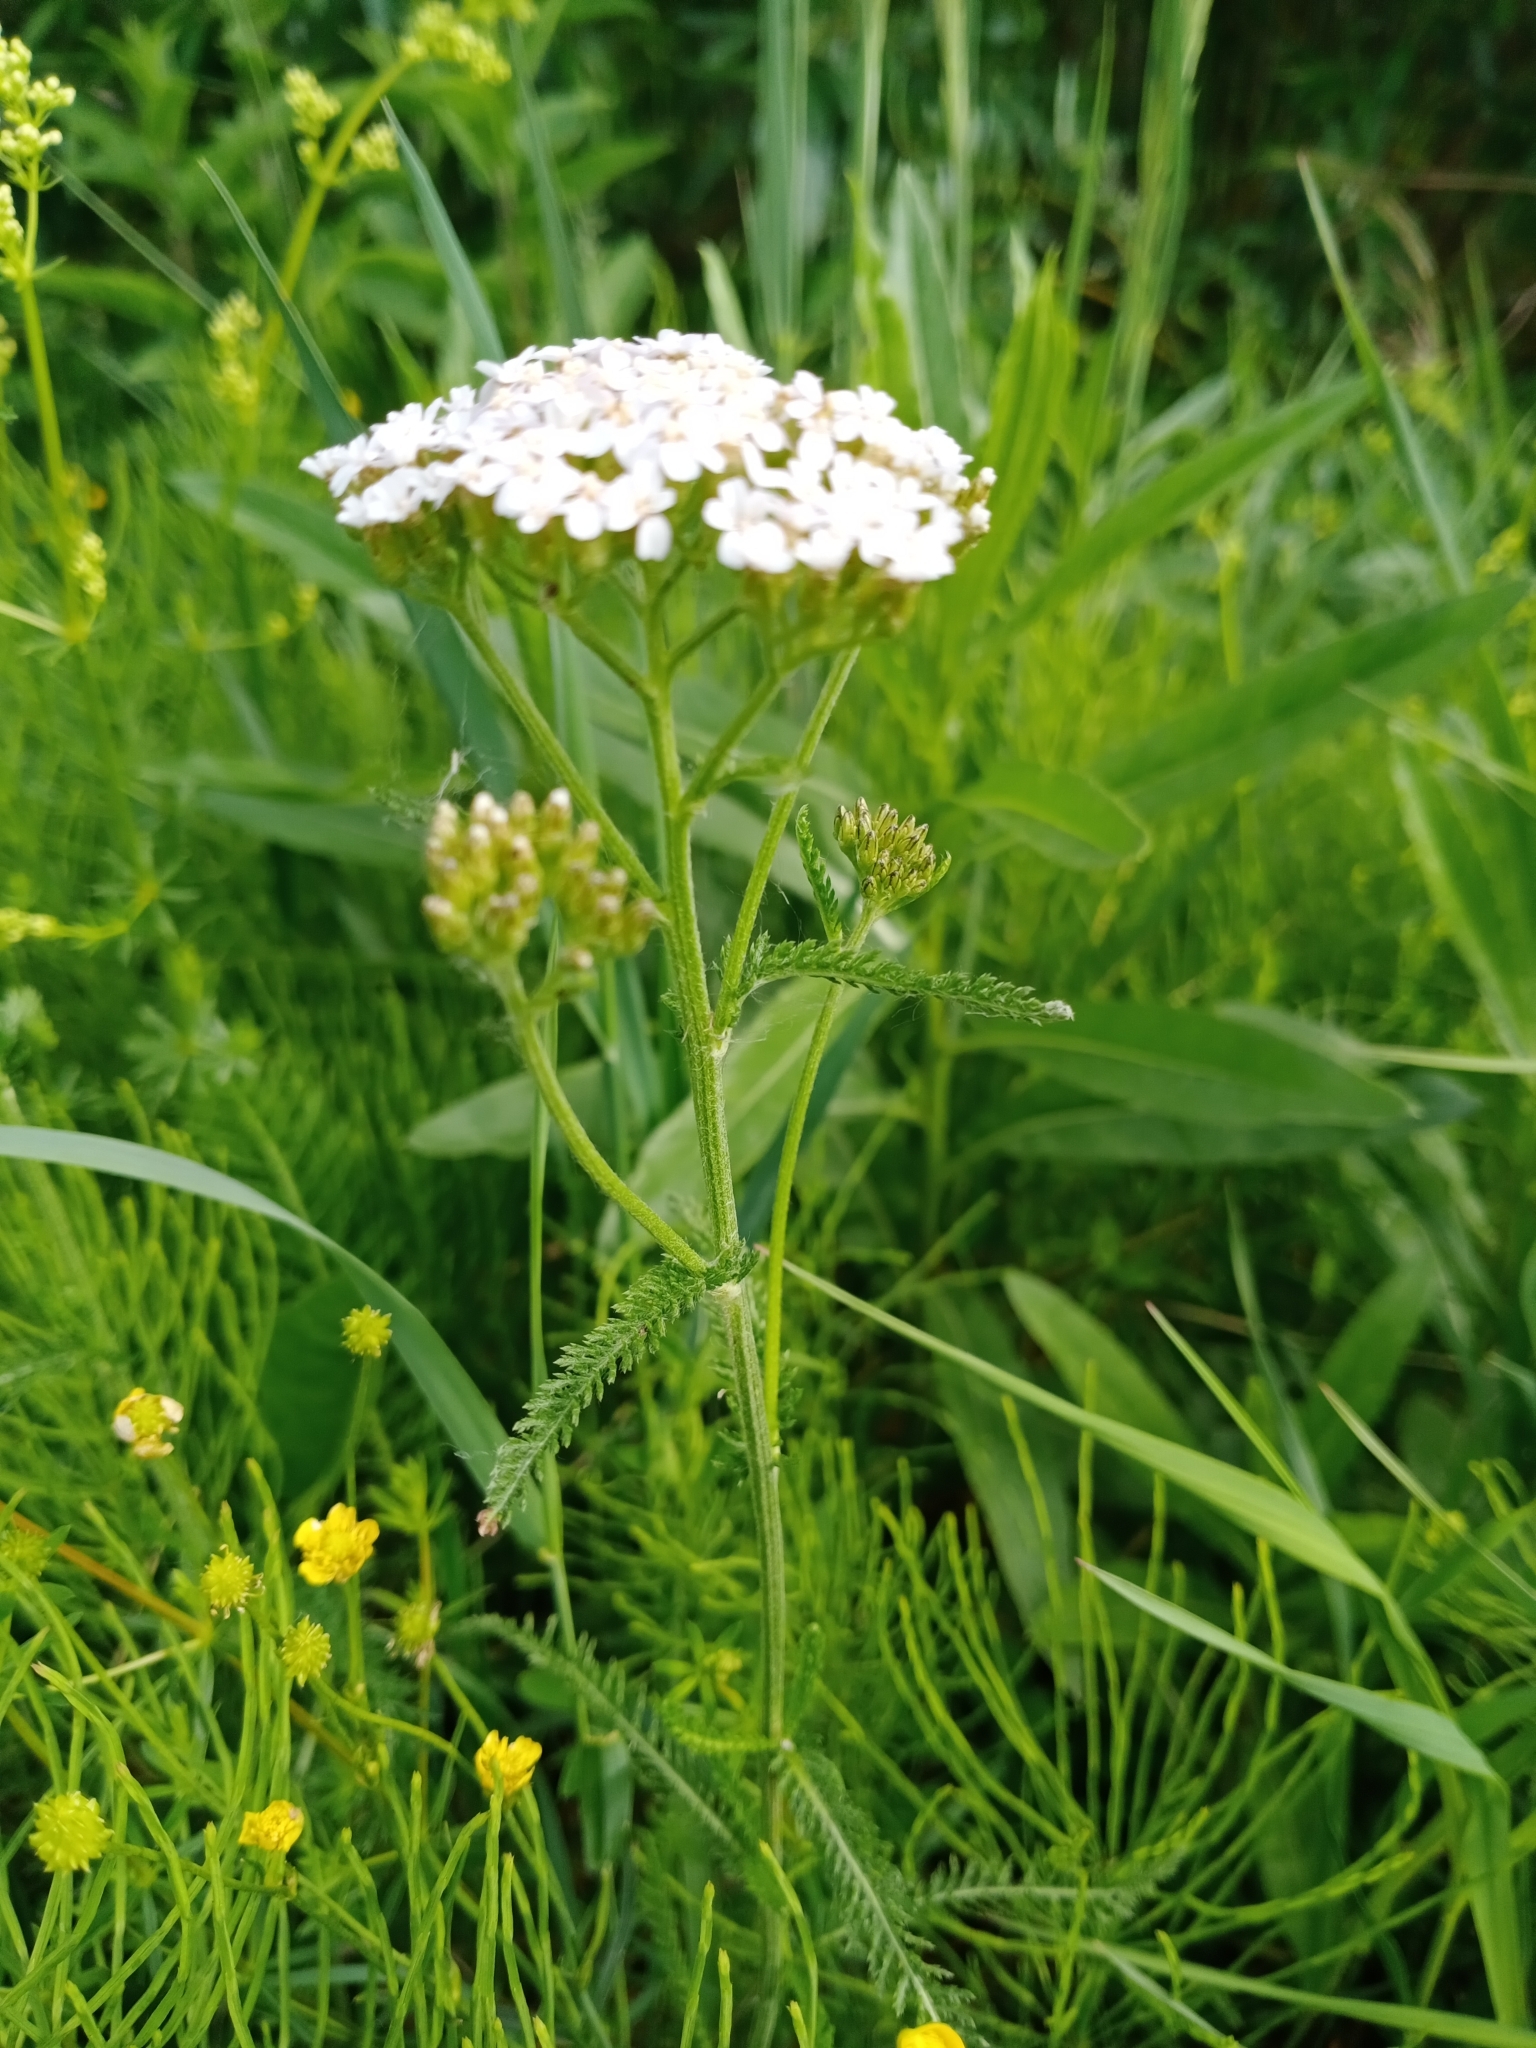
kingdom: Plantae
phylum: Tracheophyta
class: Magnoliopsida
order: Asterales
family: Asteraceae
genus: Achillea
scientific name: Achillea millefolium
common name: Yarrow
